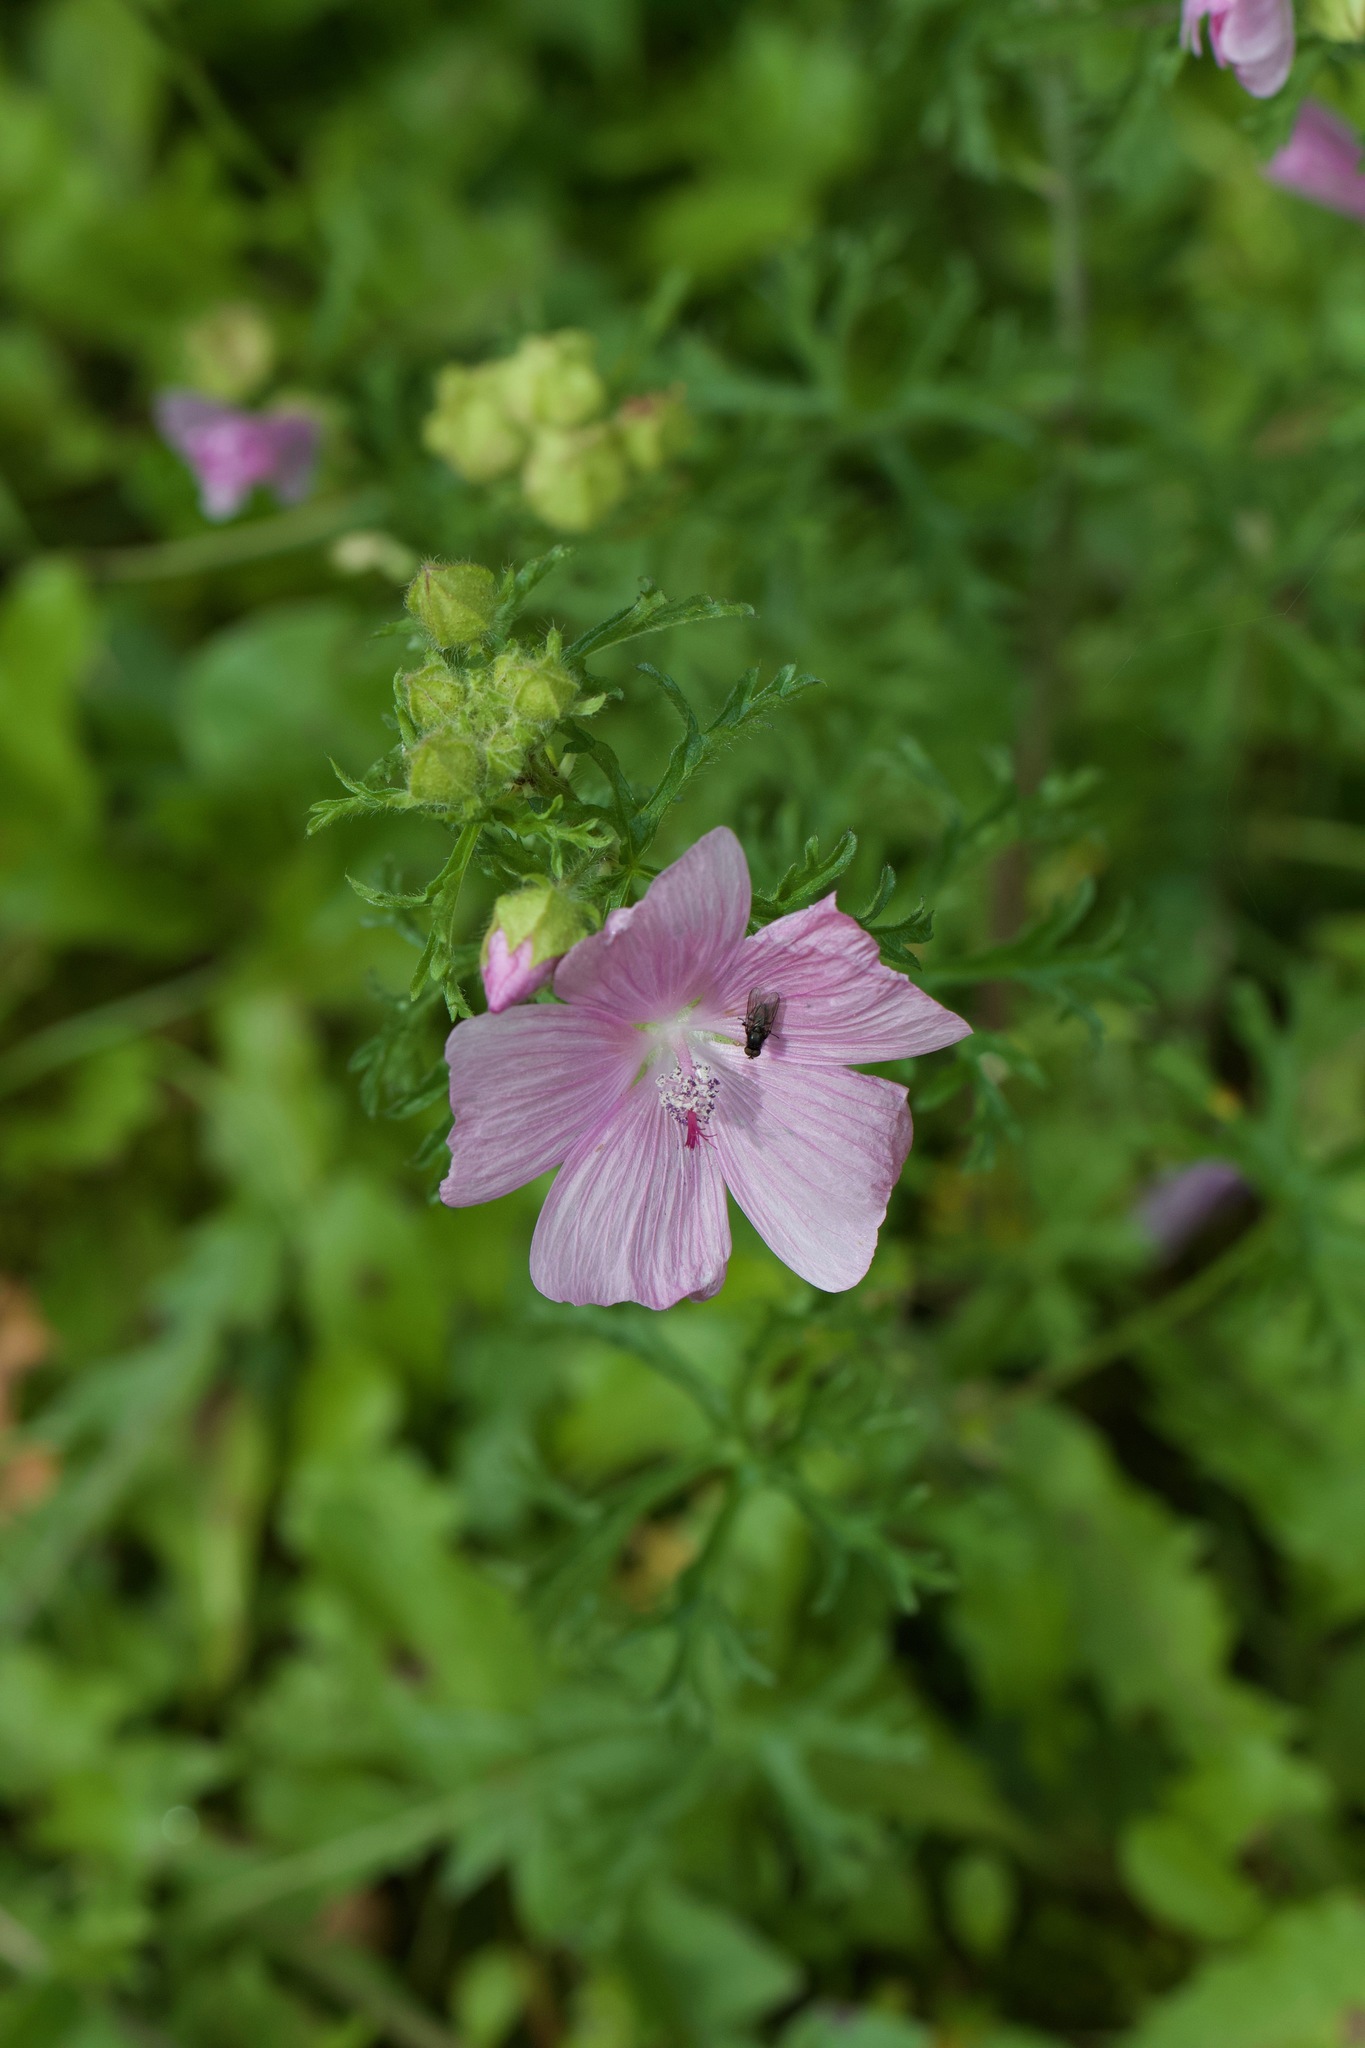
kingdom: Plantae
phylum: Tracheophyta
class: Magnoliopsida
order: Malvales
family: Malvaceae
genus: Malva
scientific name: Malva moschata
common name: Musk mallow
